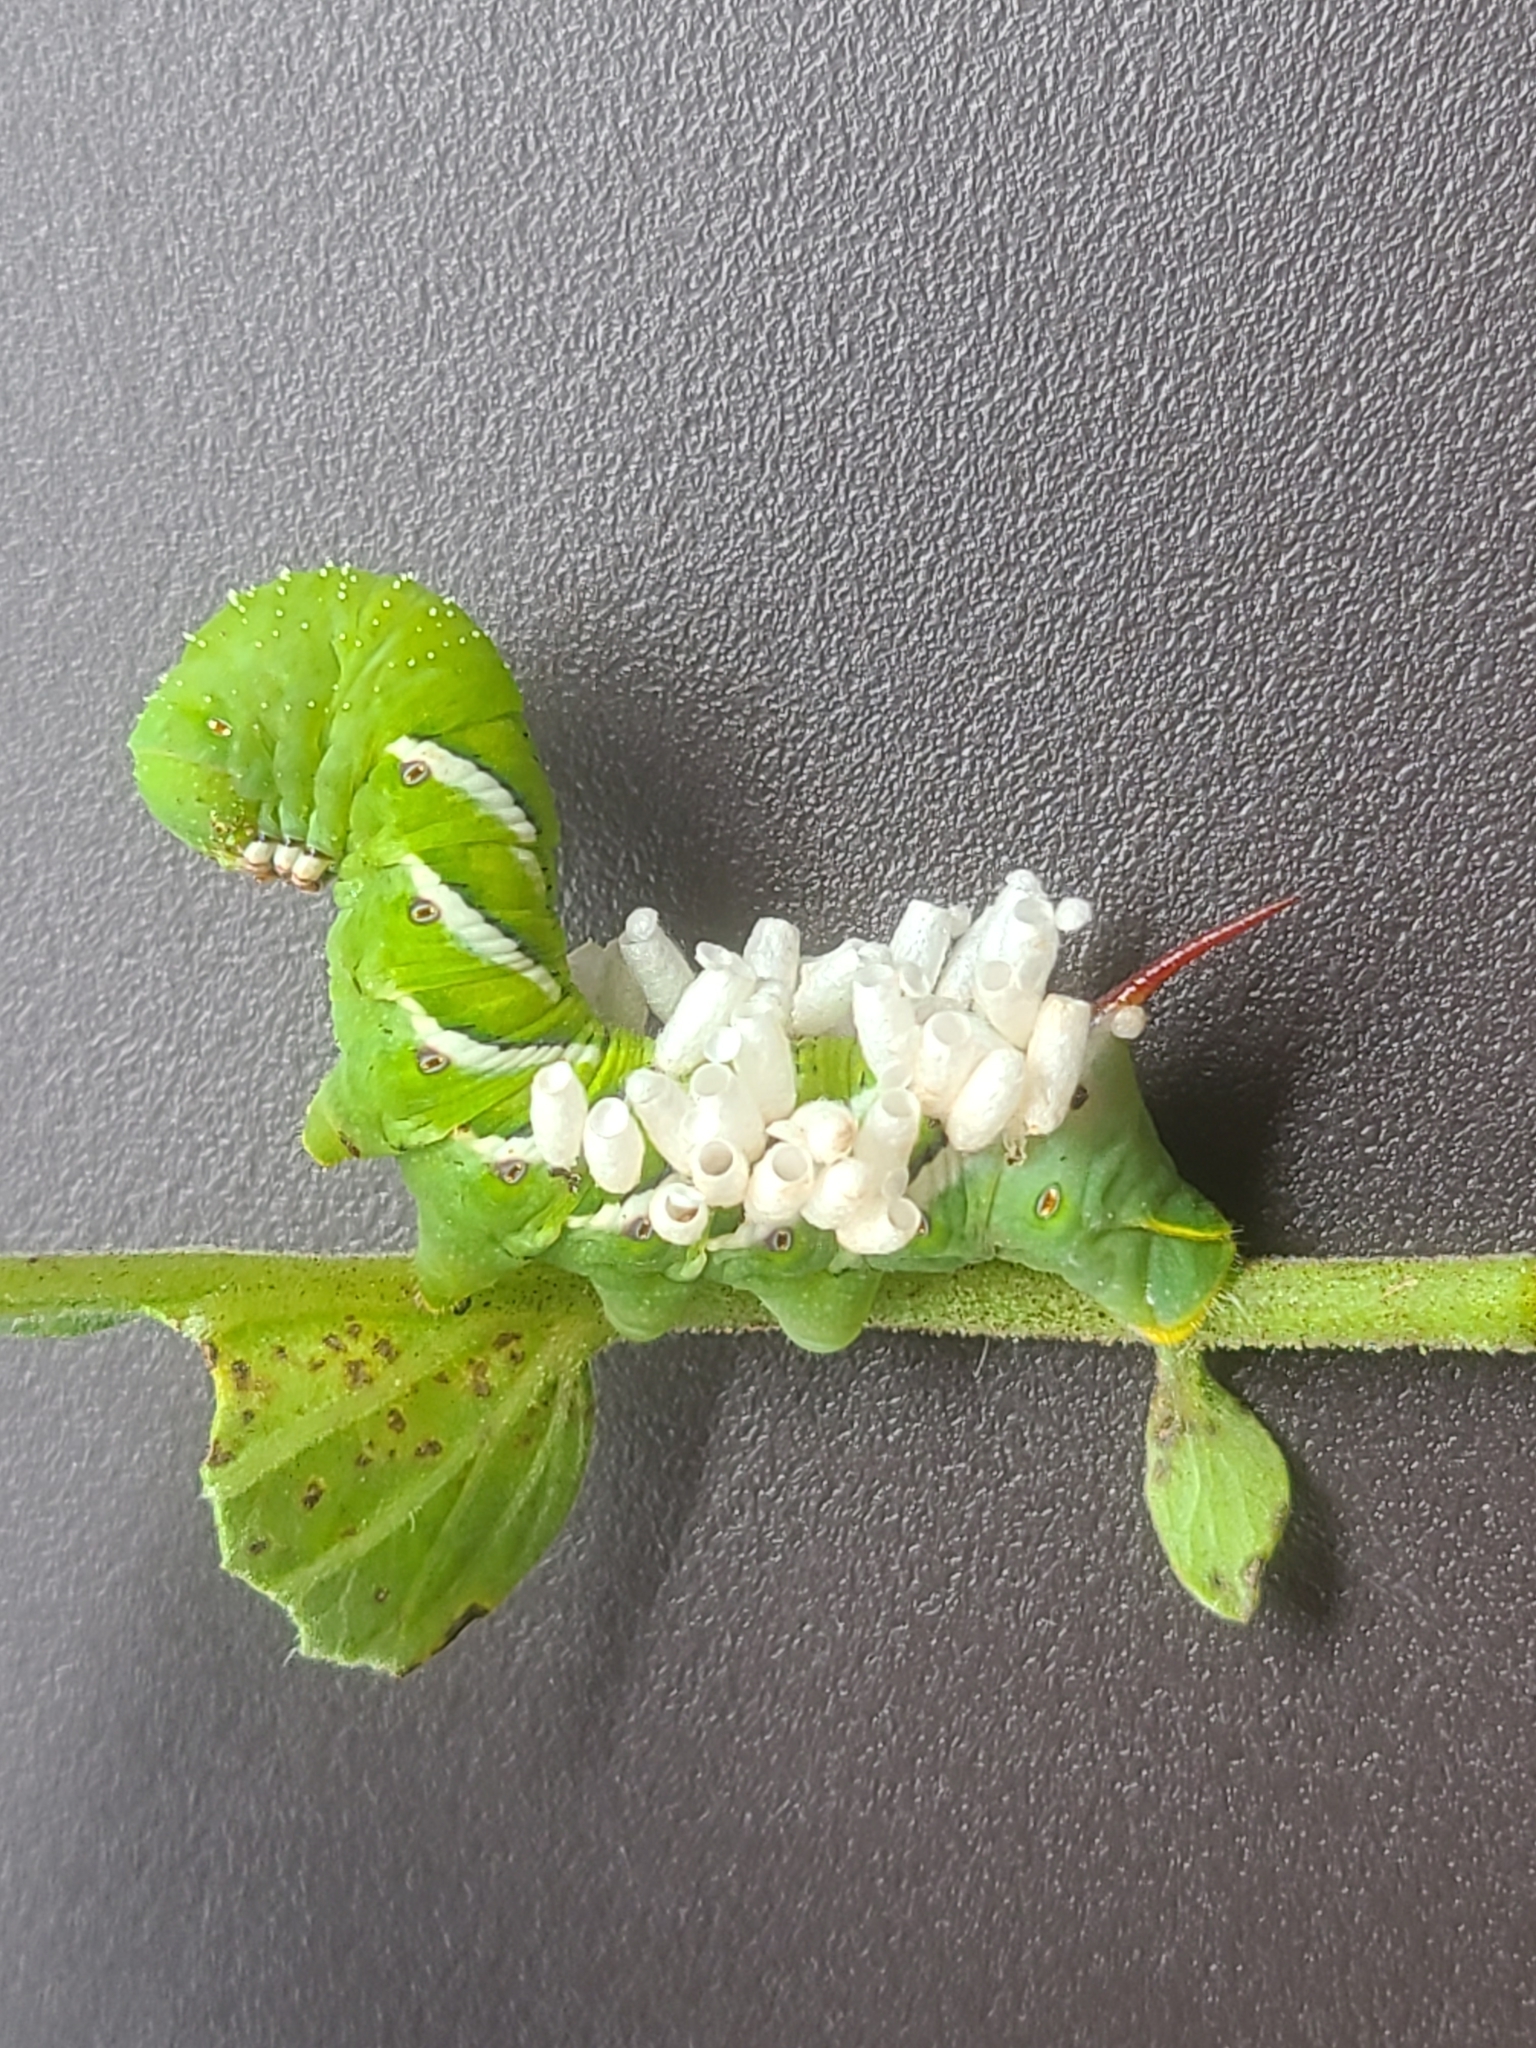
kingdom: Animalia
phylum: Arthropoda
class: Insecta
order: Hymenoptera
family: Braconidae
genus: Cotesia
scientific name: Cotesia congregata
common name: Hornworm parasitoid wasp
